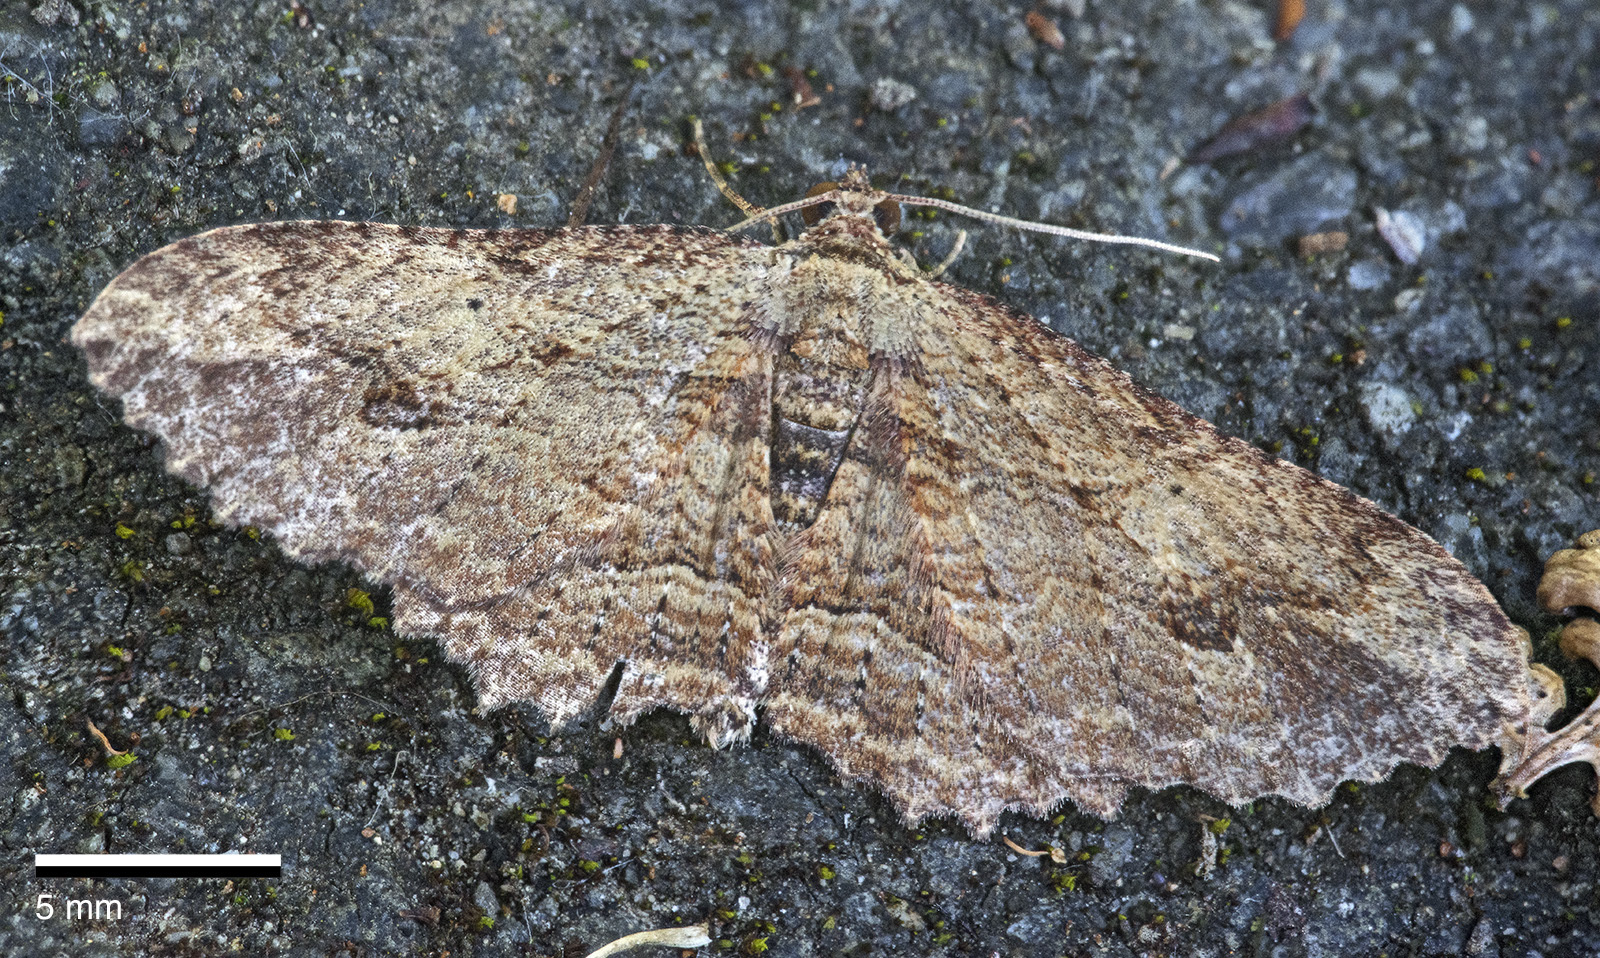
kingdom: Animalia
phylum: Arthropoda
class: Insecta
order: Lepidoptera
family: Geometridae
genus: Austrocidaria
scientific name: Austrocidaria bipartita
